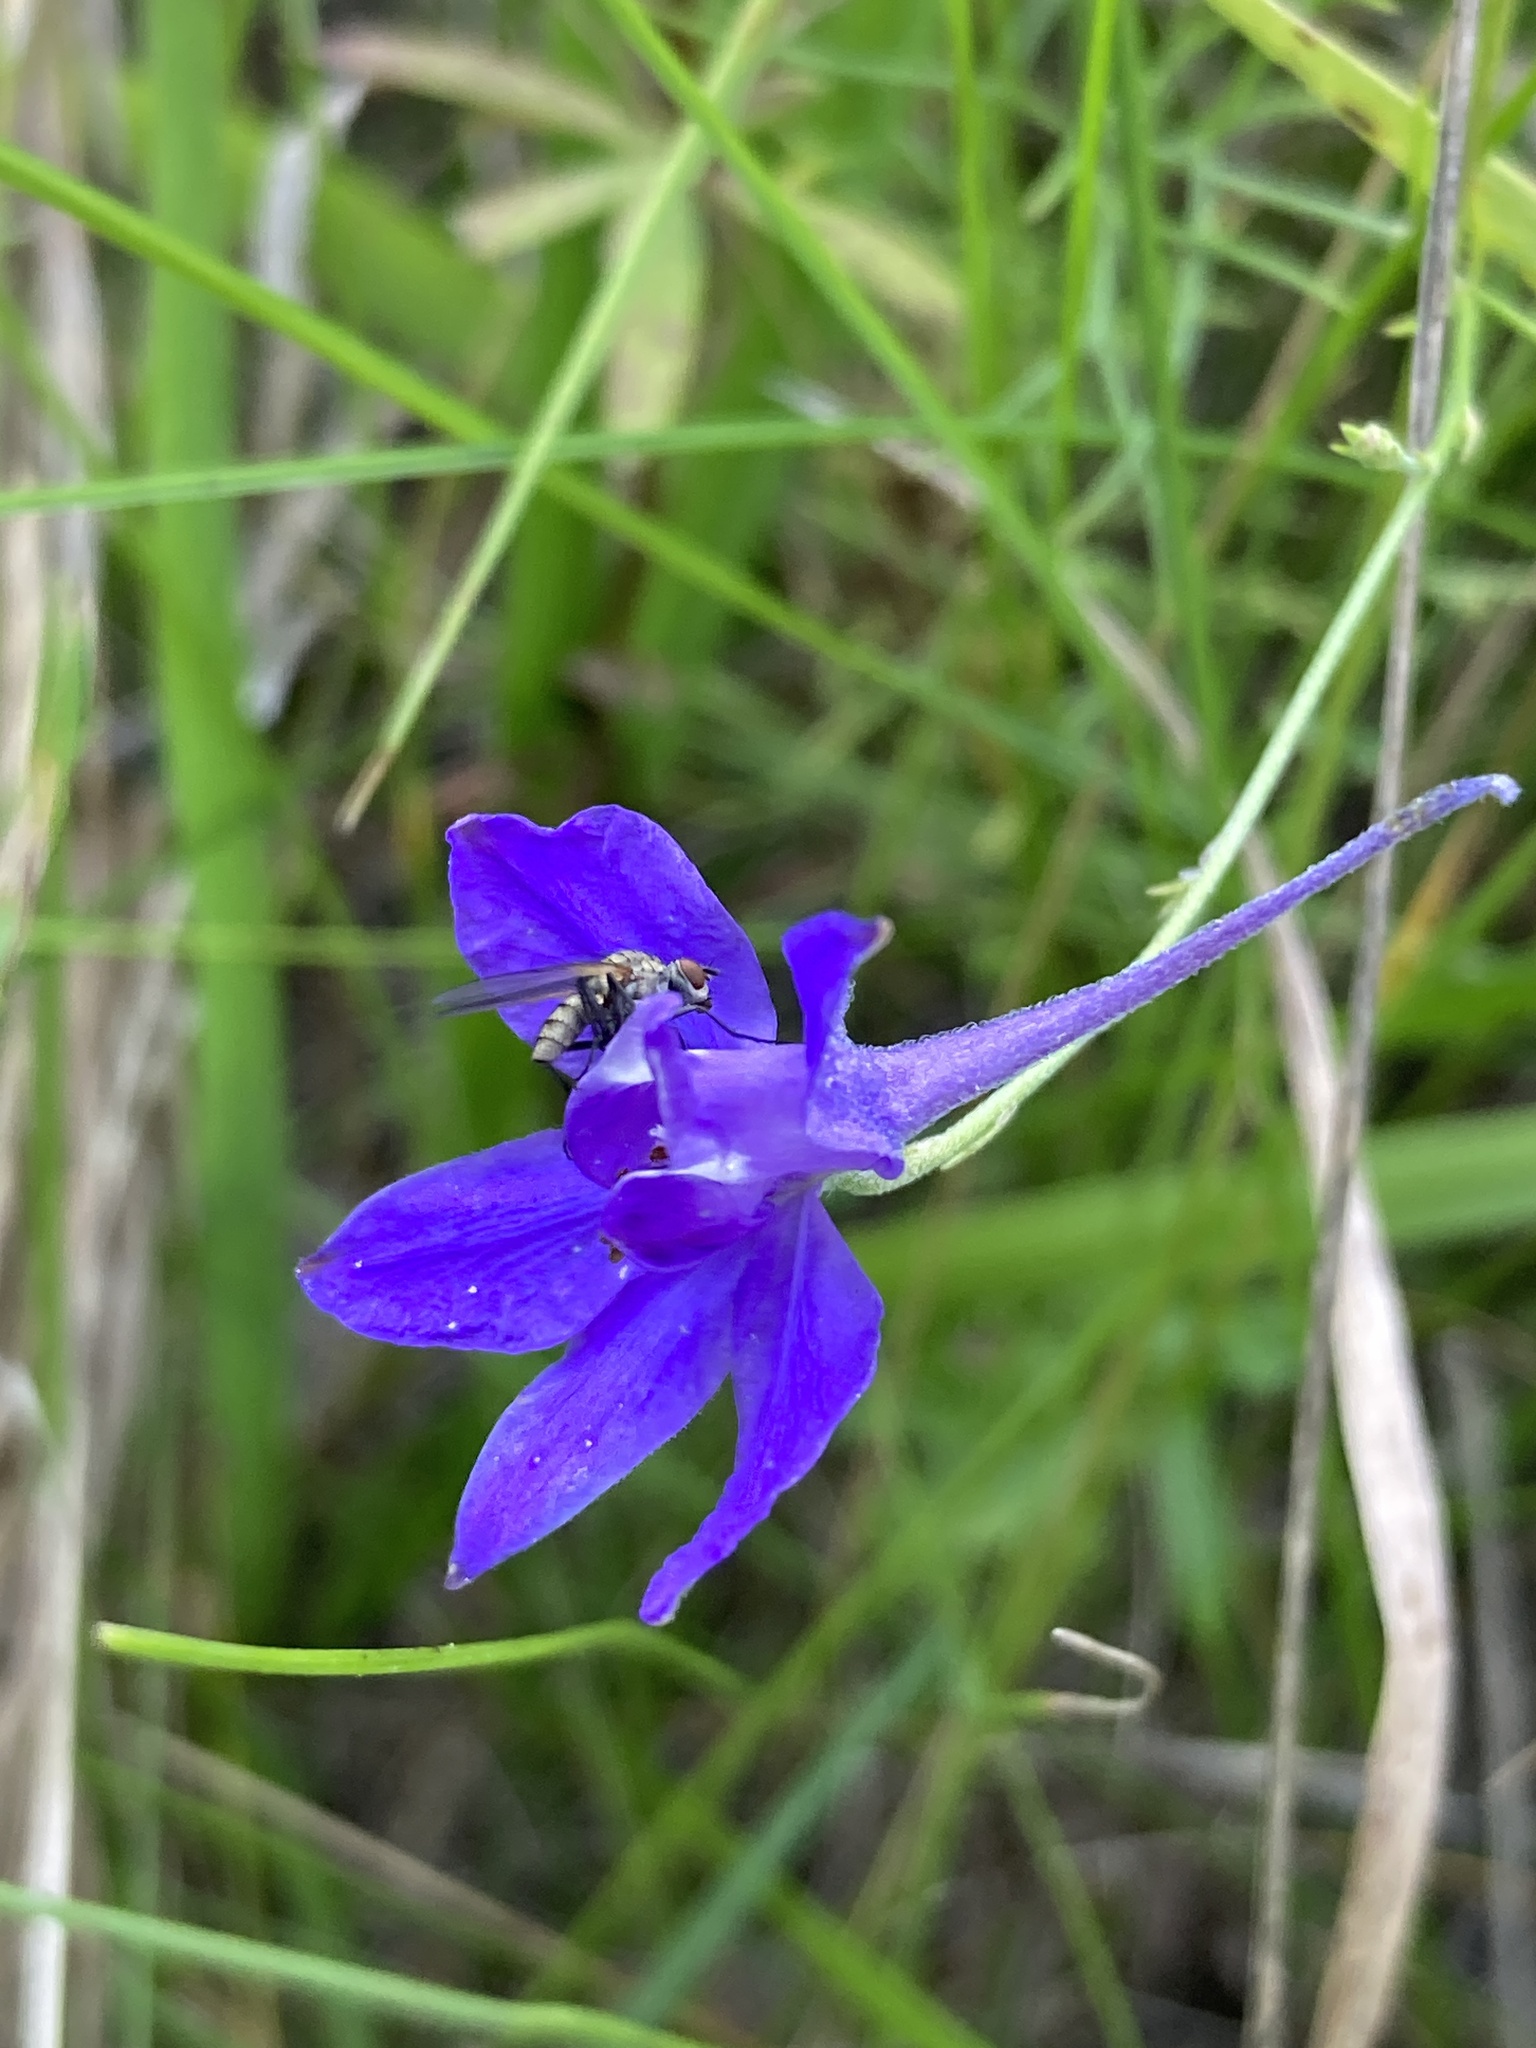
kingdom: Plantae
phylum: Tracheophyta
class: Magnoliopsida
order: Ranunculales
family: Ranunculaceae
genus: Delphinium
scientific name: Delphinium consolida
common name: Branching larkspur
